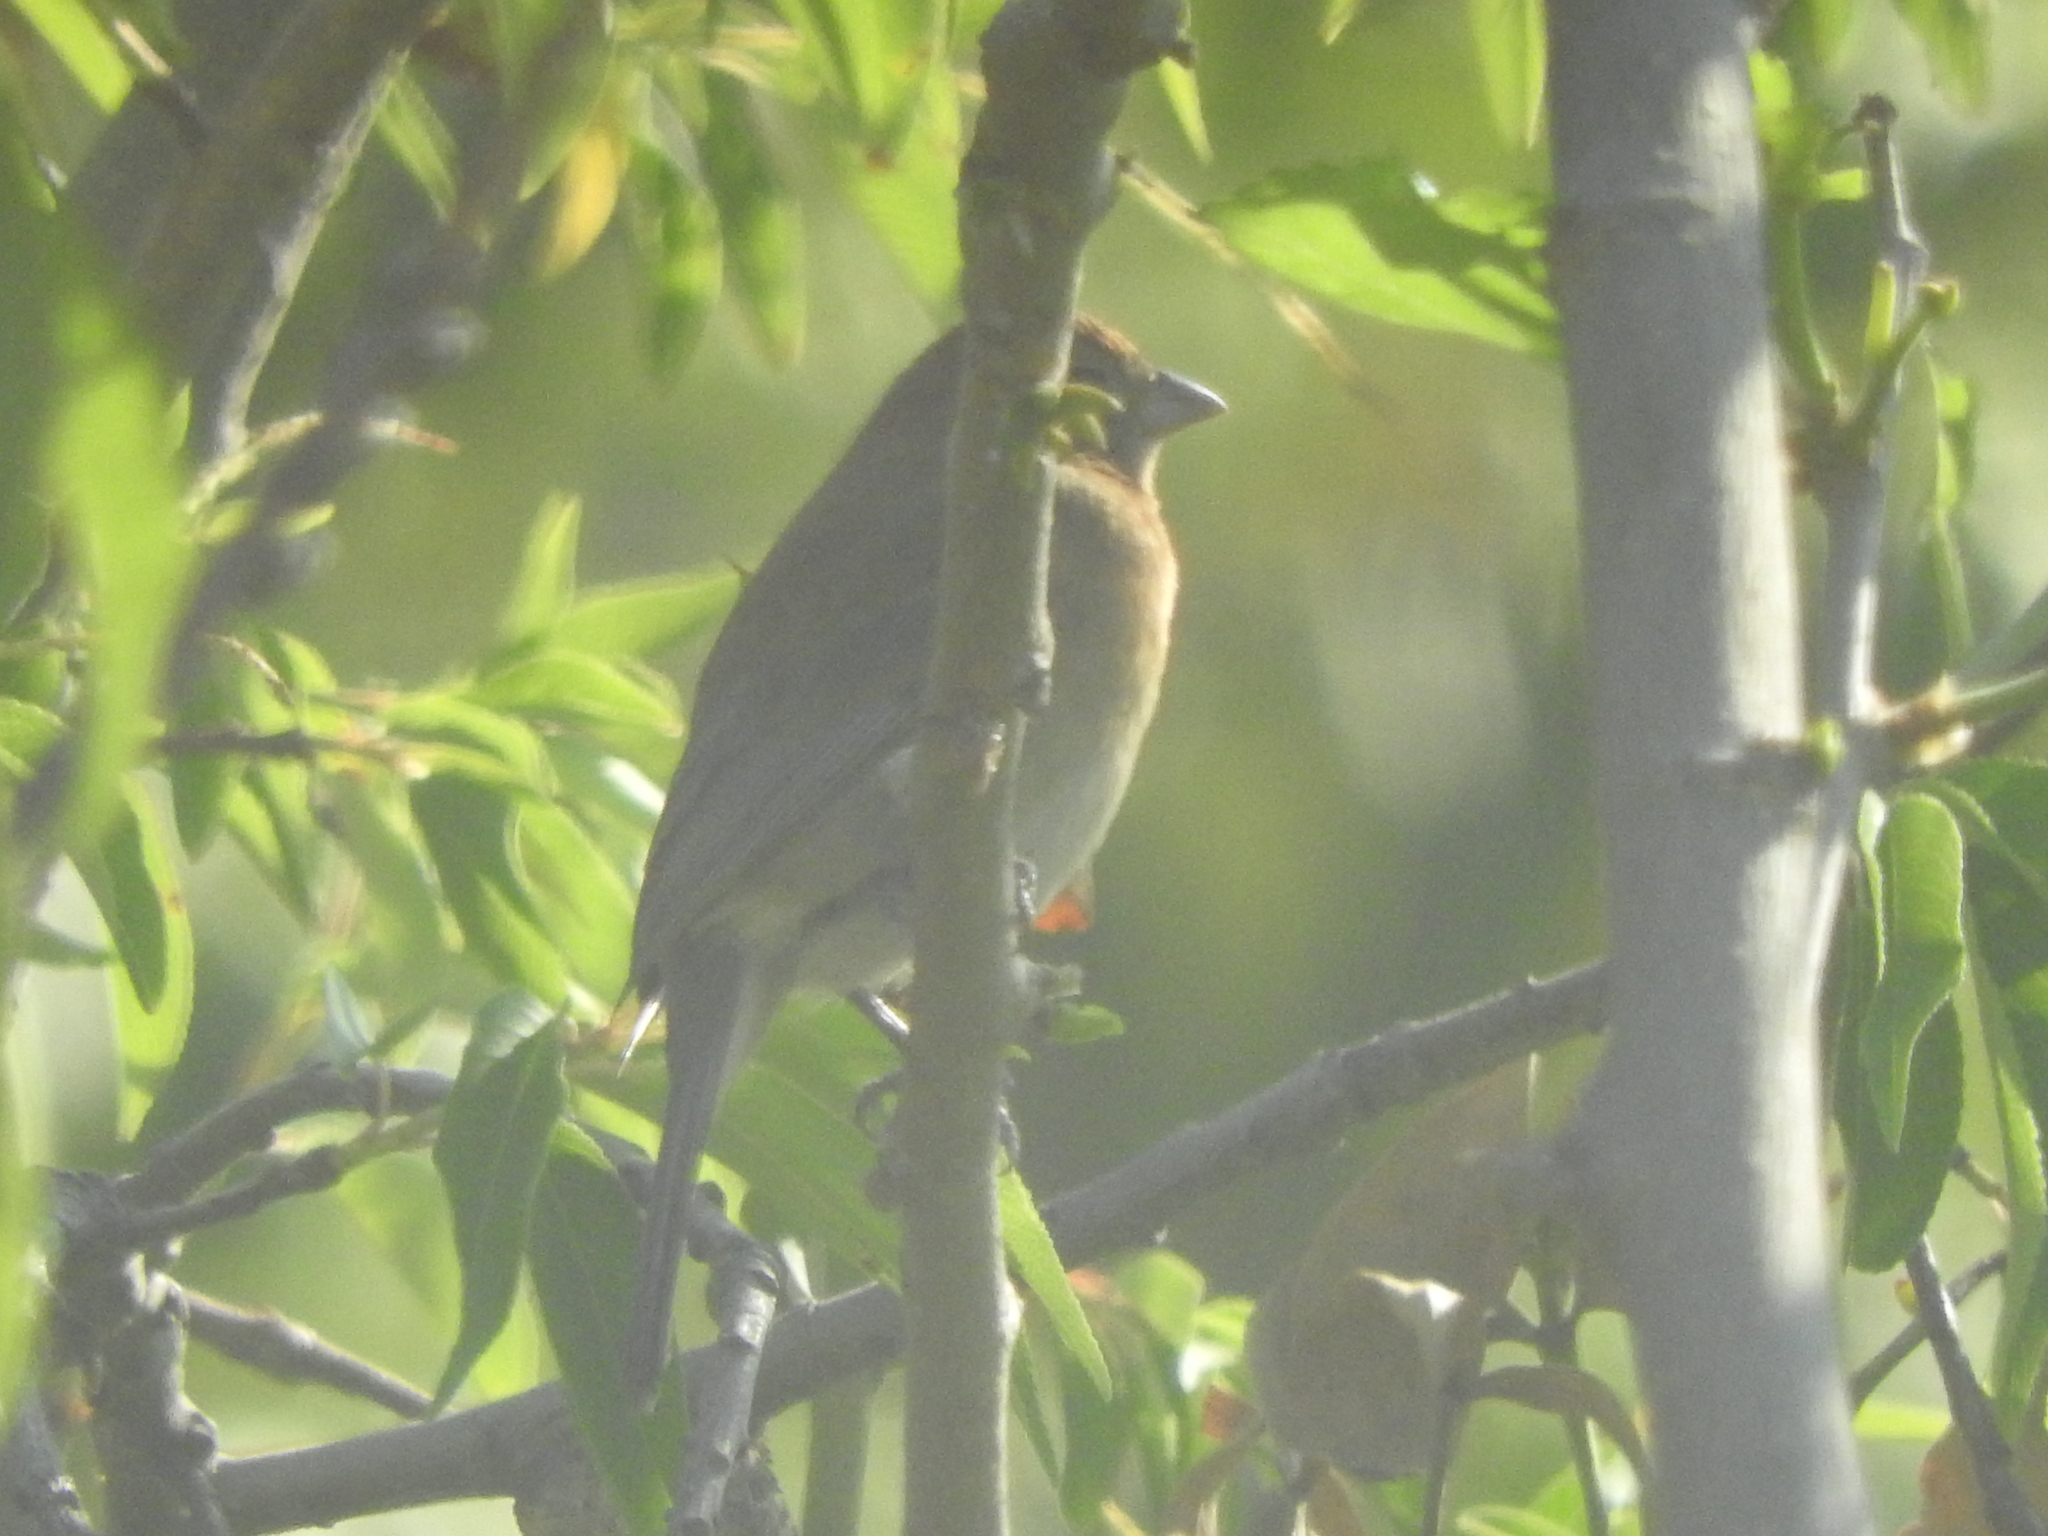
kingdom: Animalia
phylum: Chordata
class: Aves
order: Passeriformes
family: Thraupidae
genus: Volatinia
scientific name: Volatinia jacarina
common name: Blue-black grassquit
